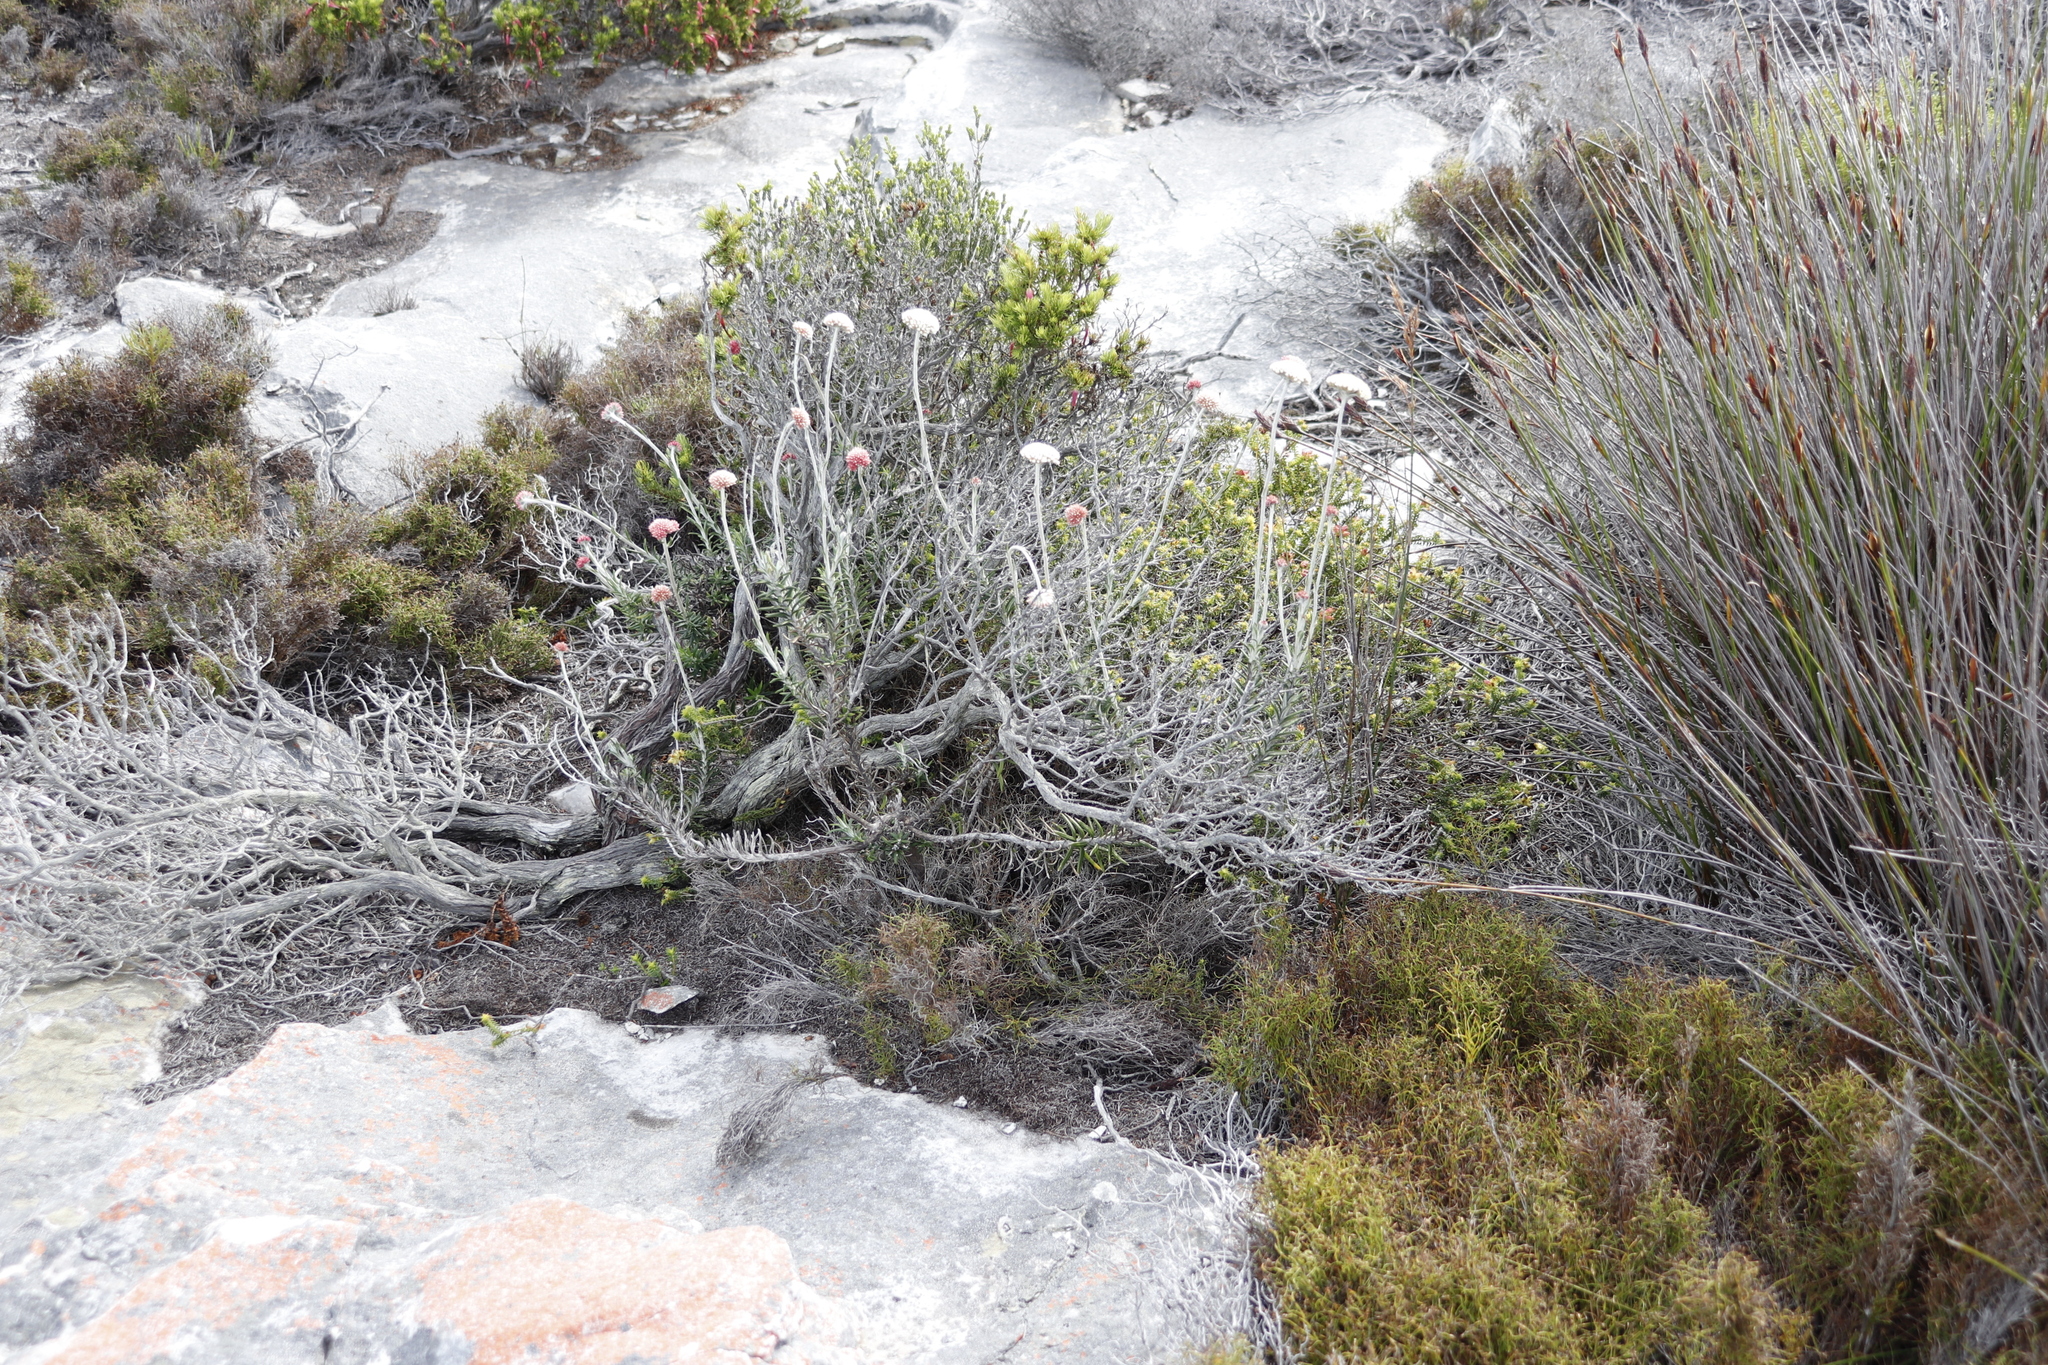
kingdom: Plantae
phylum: Tracheophyta
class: Magnoliopsida
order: Asterales
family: Asteraceae
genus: Anaxeton
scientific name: Anaxeton laeve
